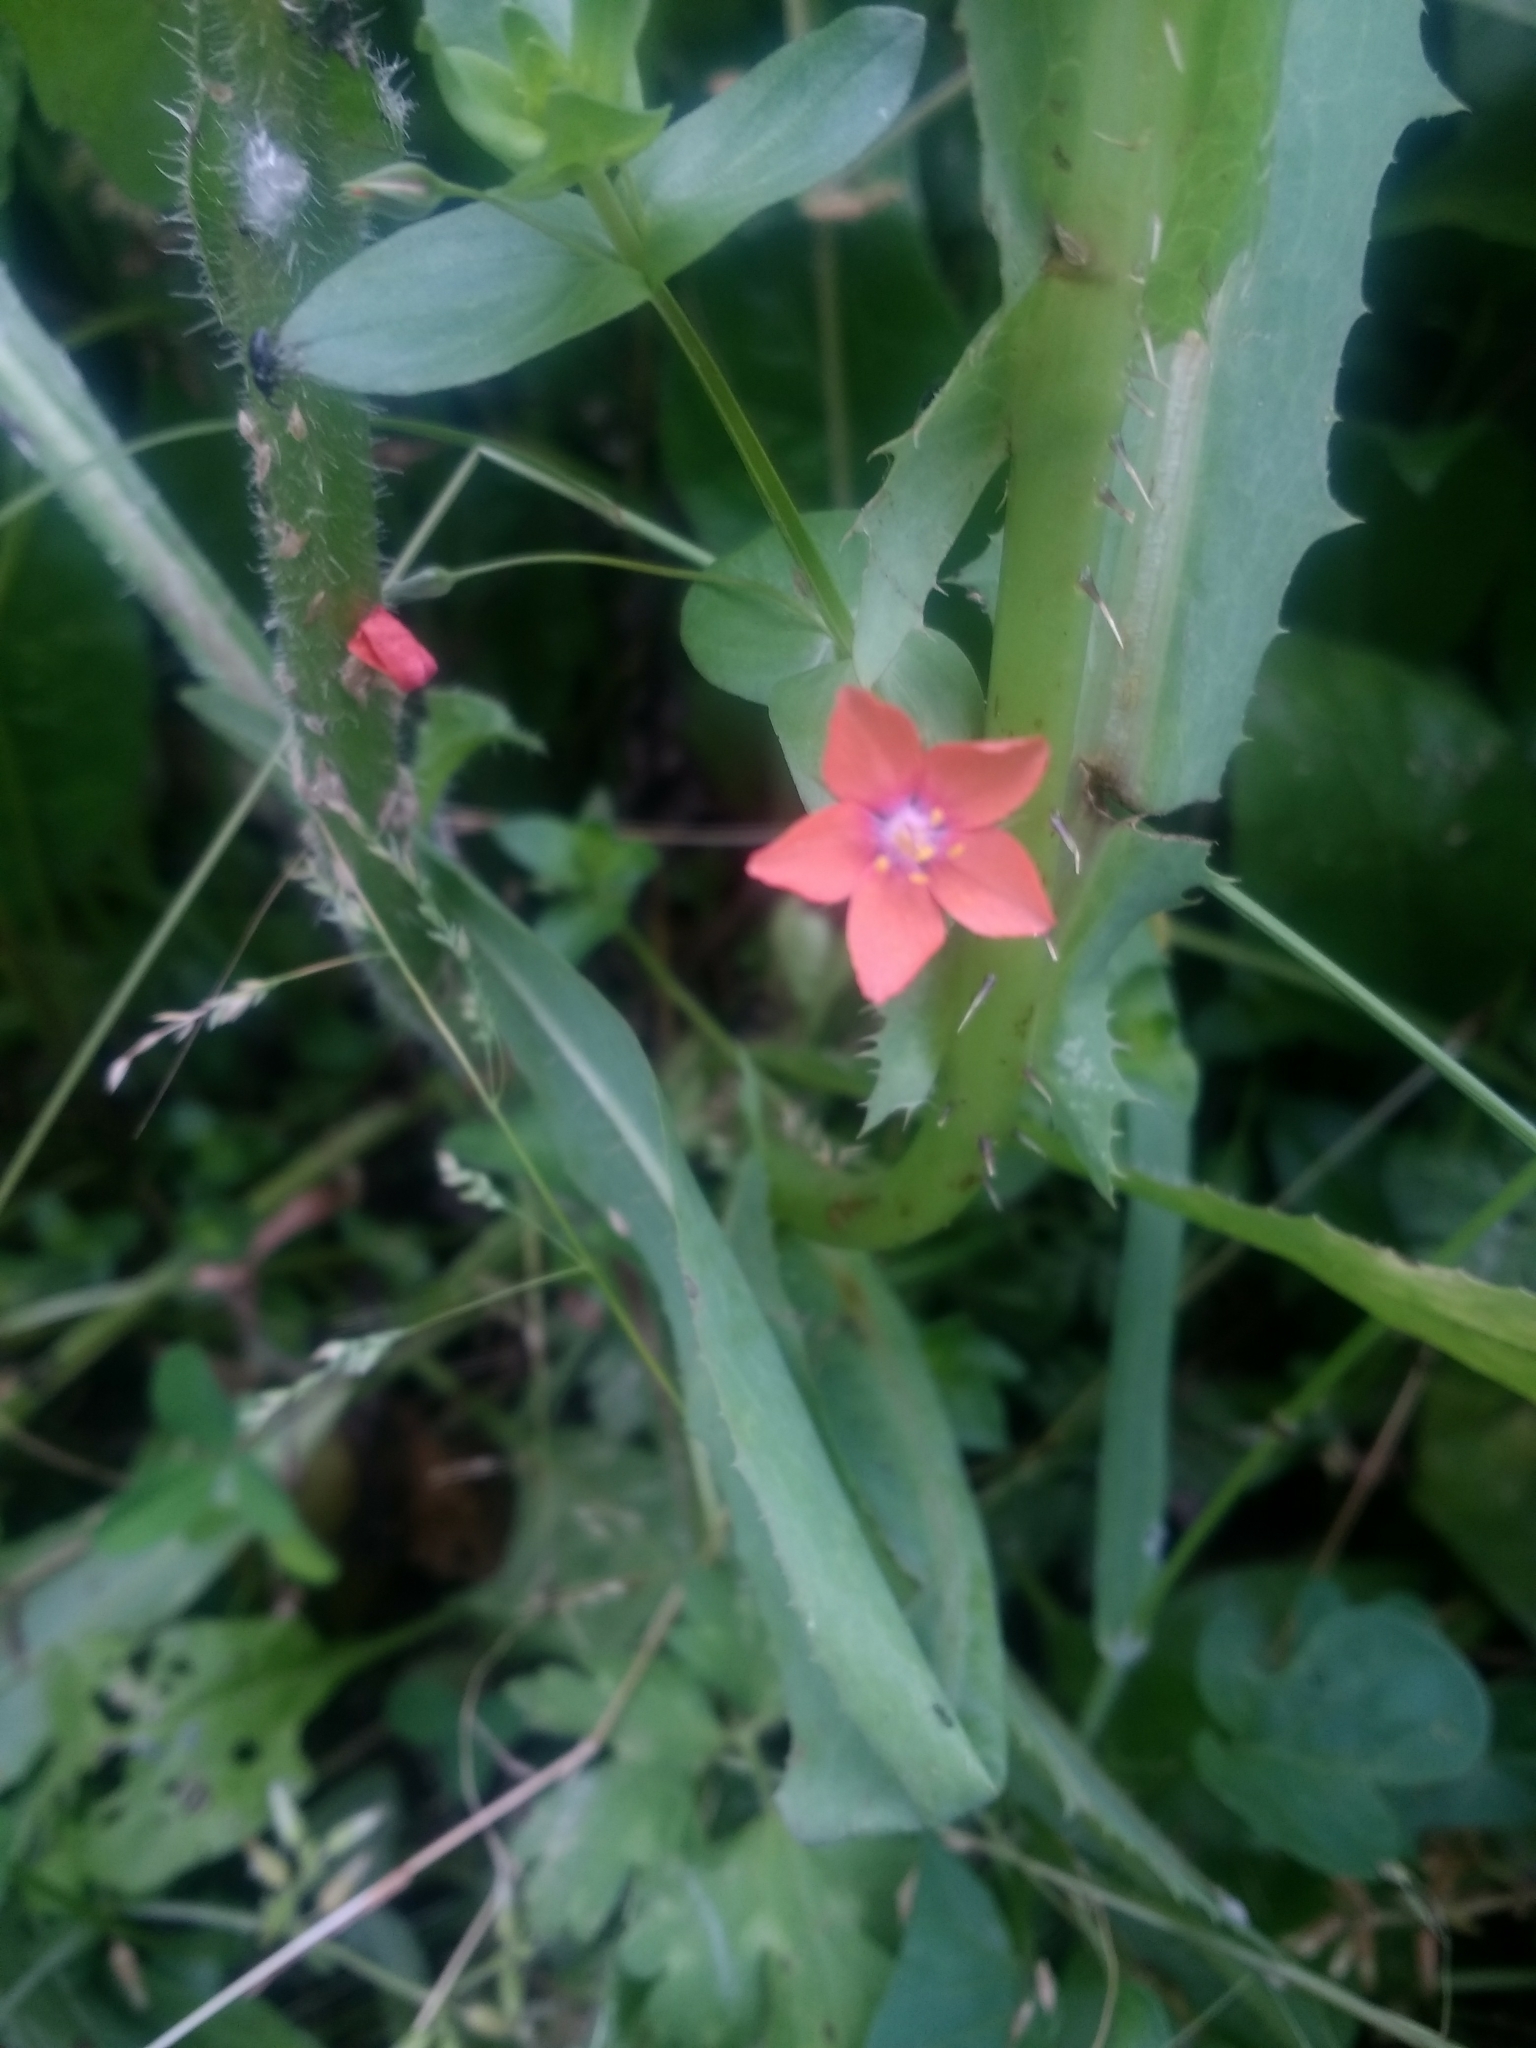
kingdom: Plantae
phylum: Tracheophyta
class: Magnoliopsida
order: Ericales
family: Primulaceae
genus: Lysimachia
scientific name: Lysimachia arvensis
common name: Scarlet pimpernel
